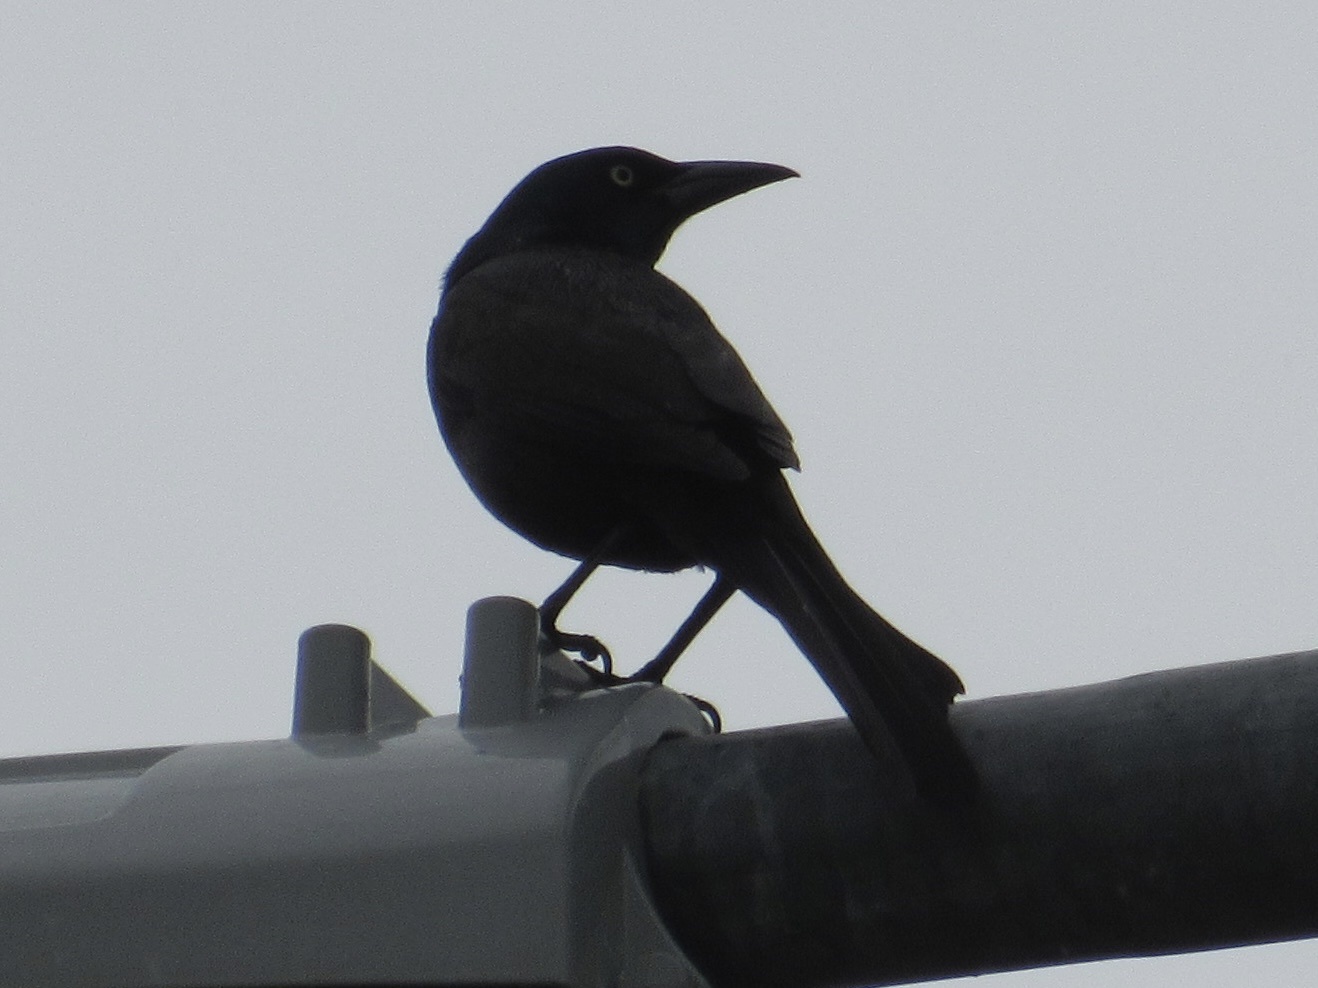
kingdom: Animalia
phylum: Chordata
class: Aves
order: Passeriformes
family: Icteridae
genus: Quiscalus
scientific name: Quiscalus quiscula
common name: Common grackle
